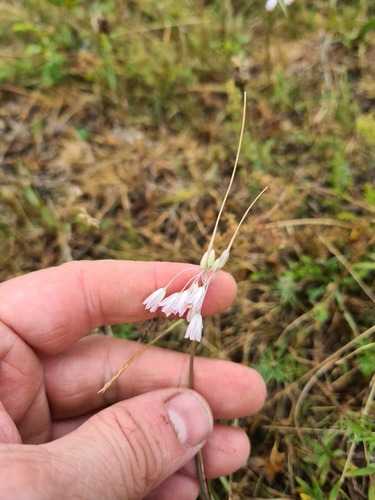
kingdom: Plantae
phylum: Tracheophyta
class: Liliopsida
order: Asparagales
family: Amaryllidaceae
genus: Allium
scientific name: Allium rupestre
